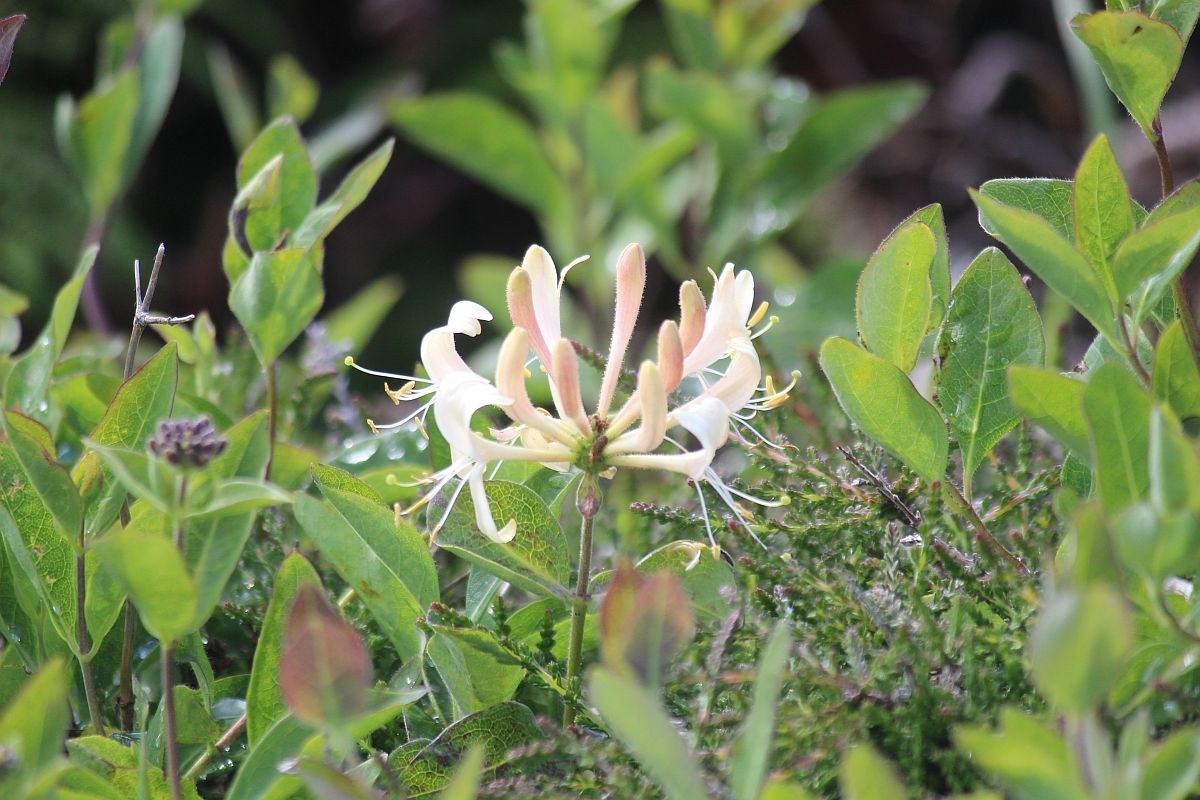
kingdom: Plantae
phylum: Tracheophyta
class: Magnoliopsida
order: Dipsacales
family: Caprifoliaceae
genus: Lonicera
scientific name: Lonicera periclymenum
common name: European honeysuckle
